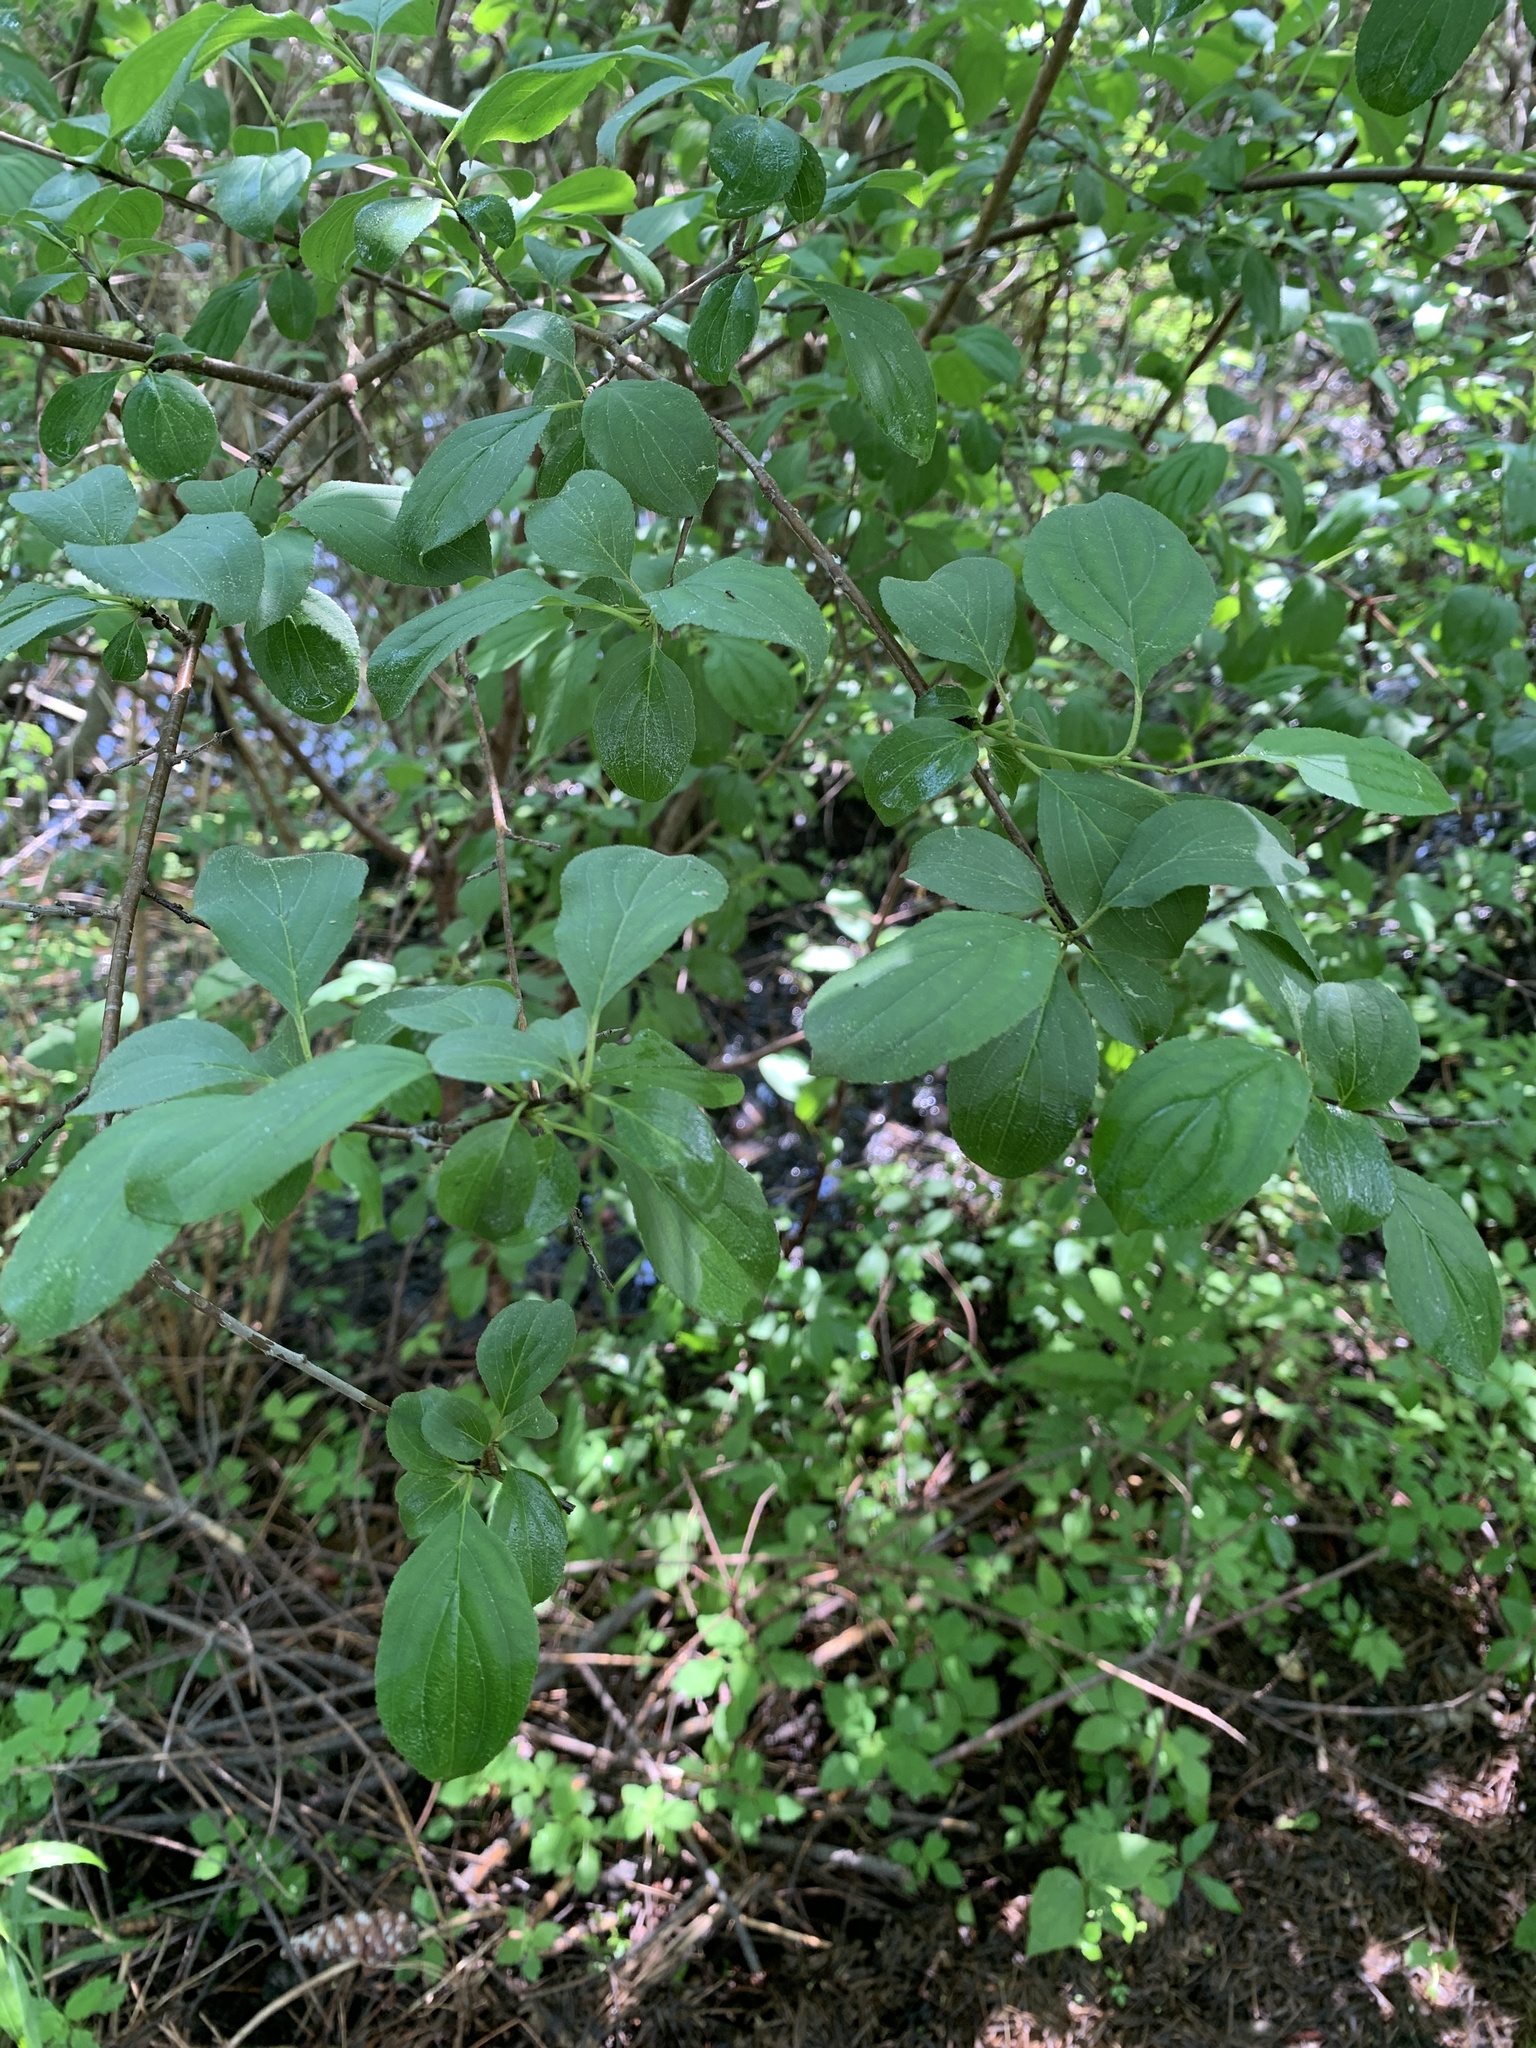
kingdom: Plantae
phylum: Tracheophyta
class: Magnoliopsida
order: Rosales
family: Rhamnaceae
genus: Rhamnus
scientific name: Rhamnus cathartica
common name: Common buckthorn
